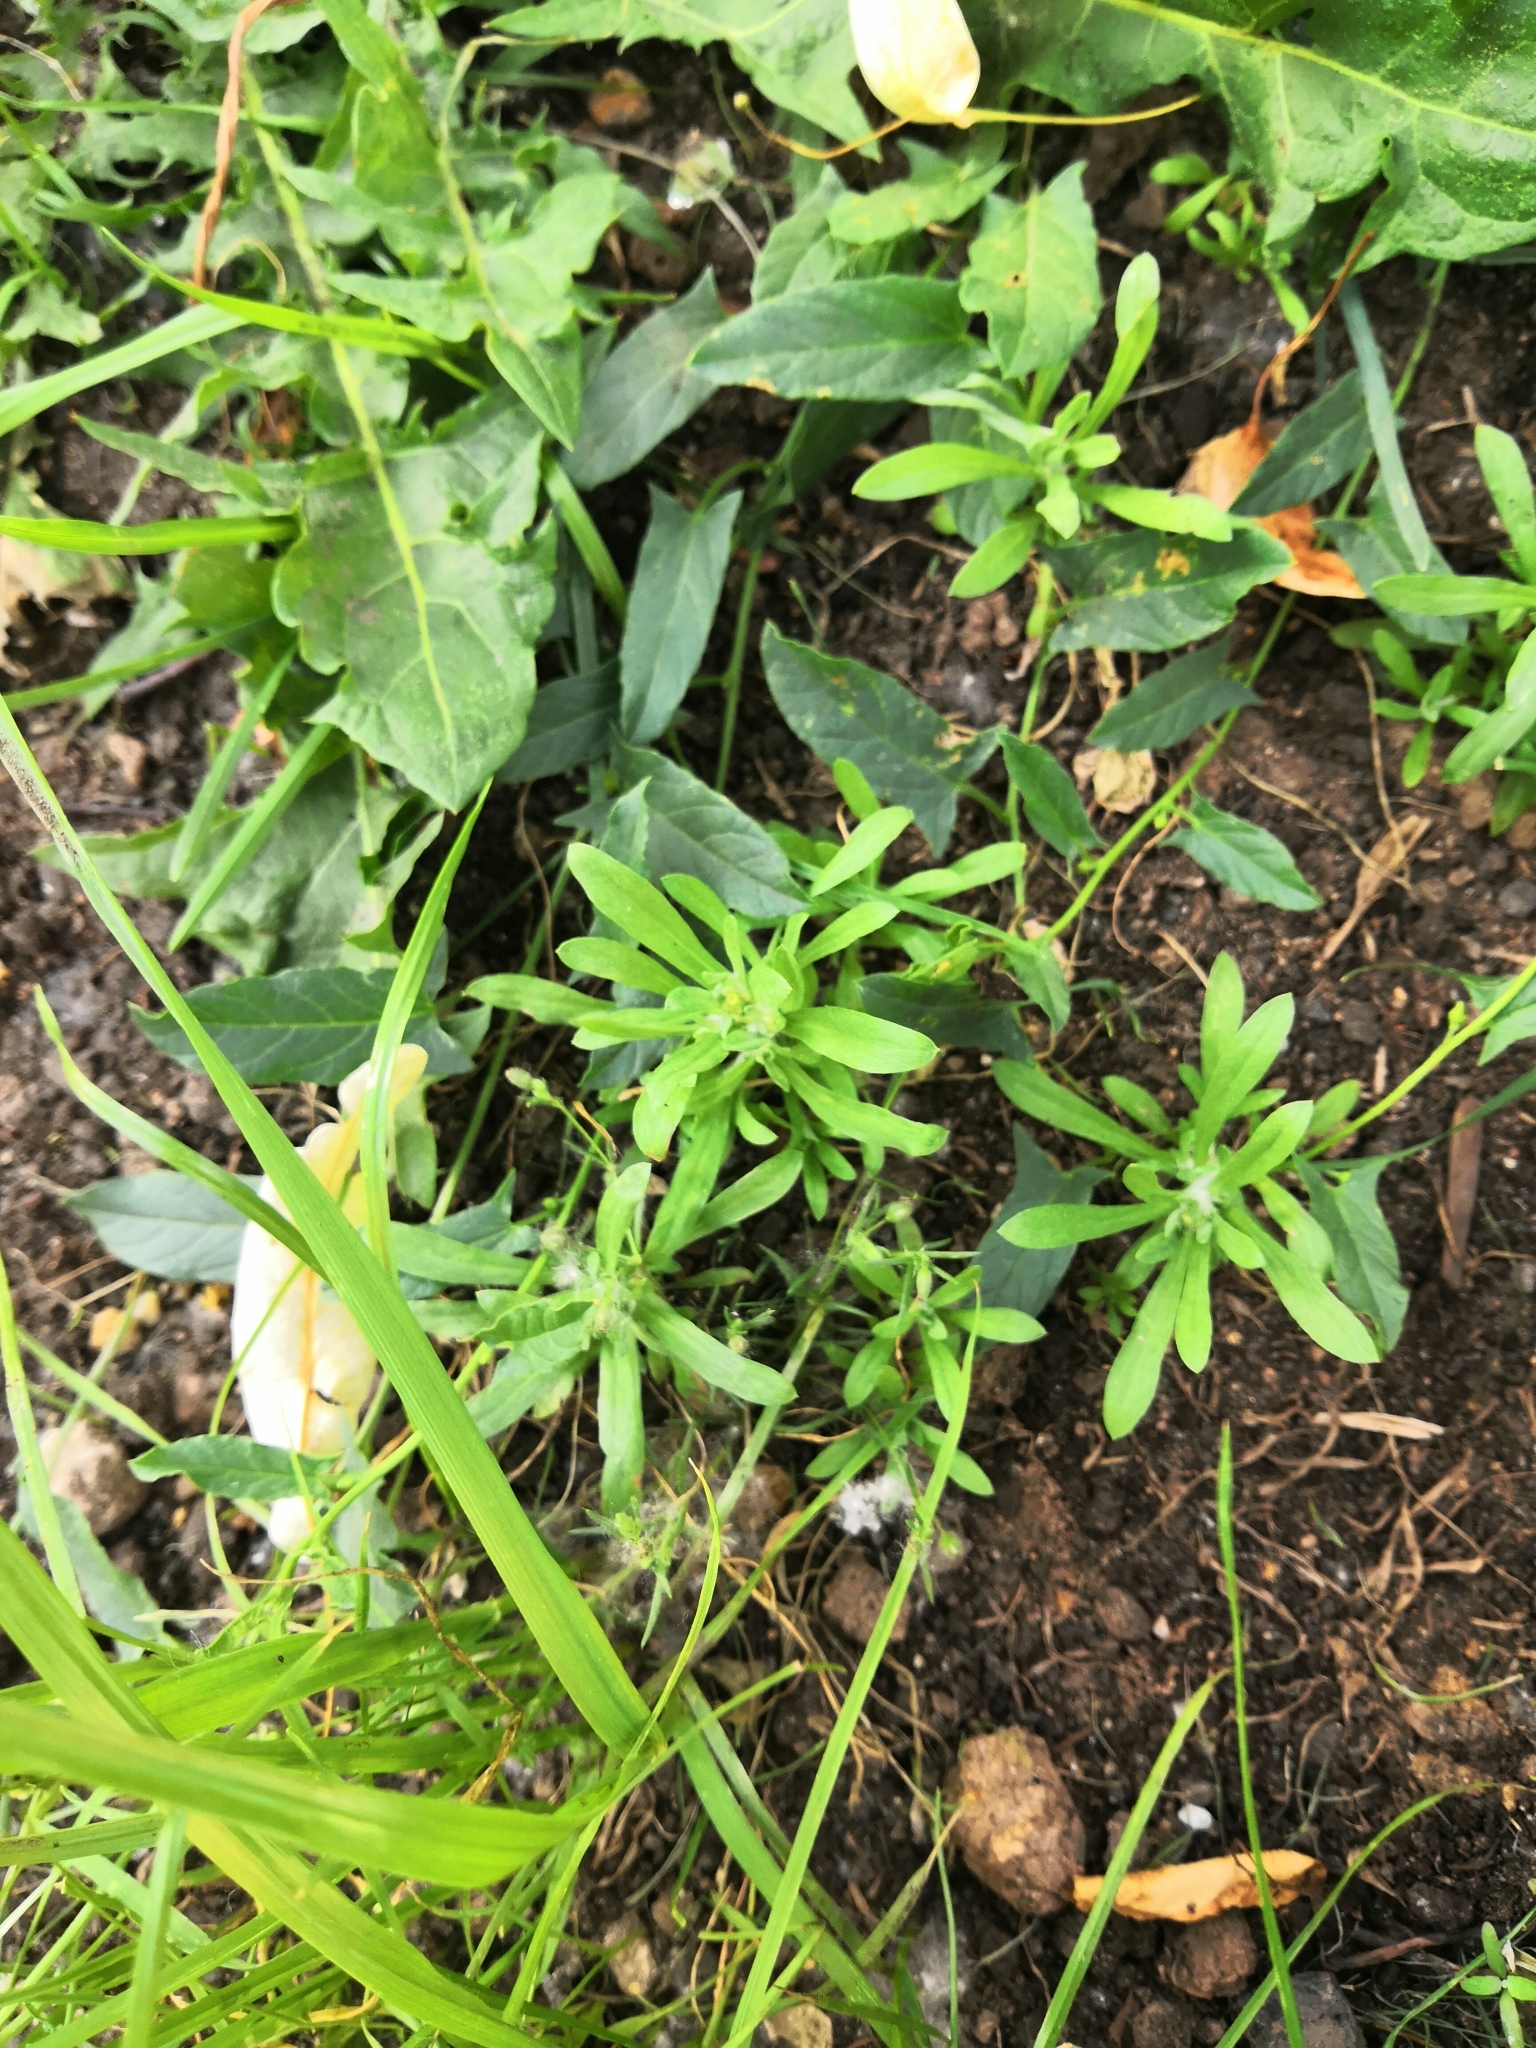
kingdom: Plantae
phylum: Tracheophyta
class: Magnoliopsida
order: Gentianales
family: Rubiaceae
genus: Galium
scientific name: Galium aparine
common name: Cleavers
